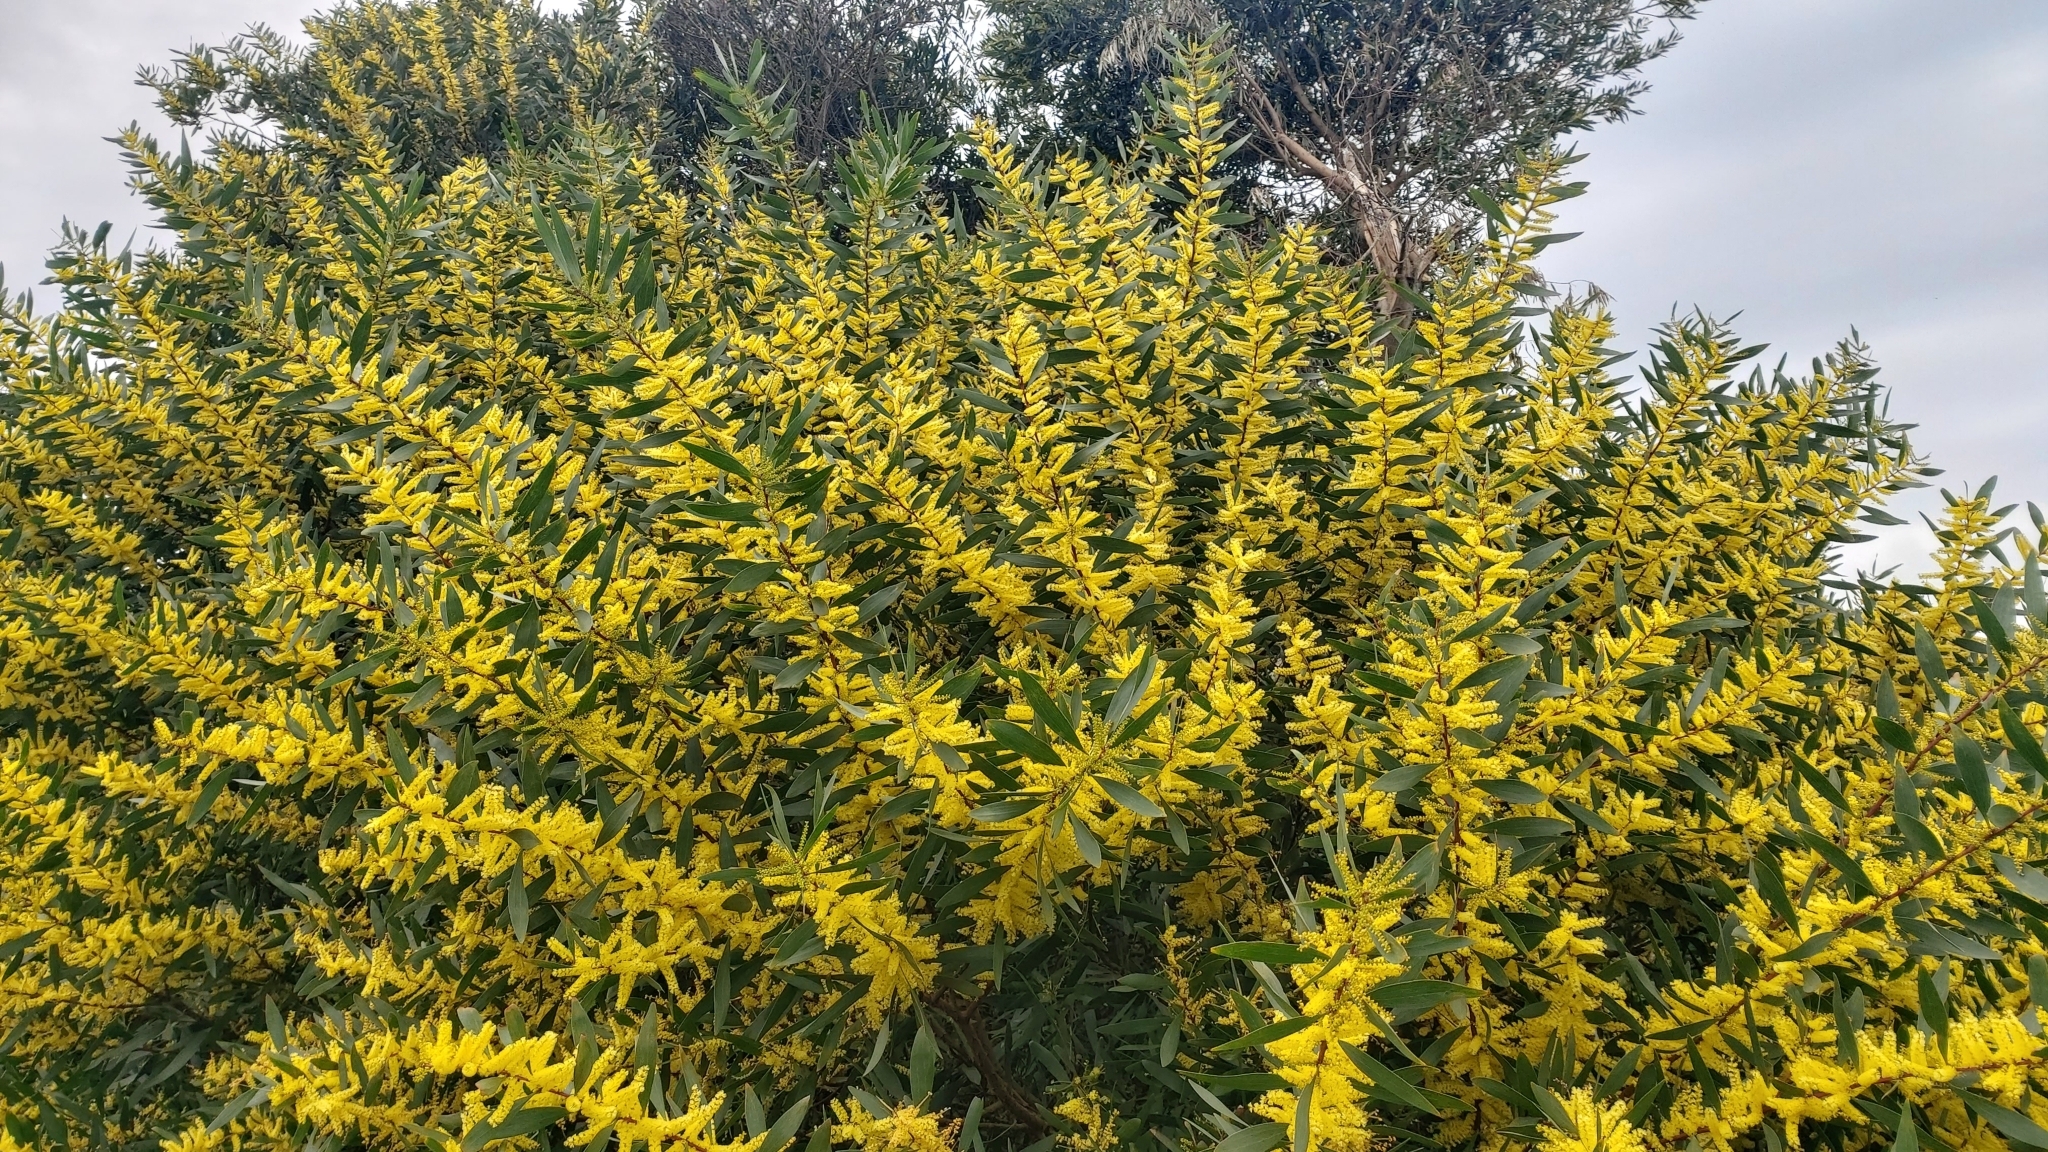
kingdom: Plantae
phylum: Tracheophyta
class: Magnoliopsida
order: Fabales
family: Fabaceae
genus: Acacia
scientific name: Acacia longifolia
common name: Sydney golden wattle
